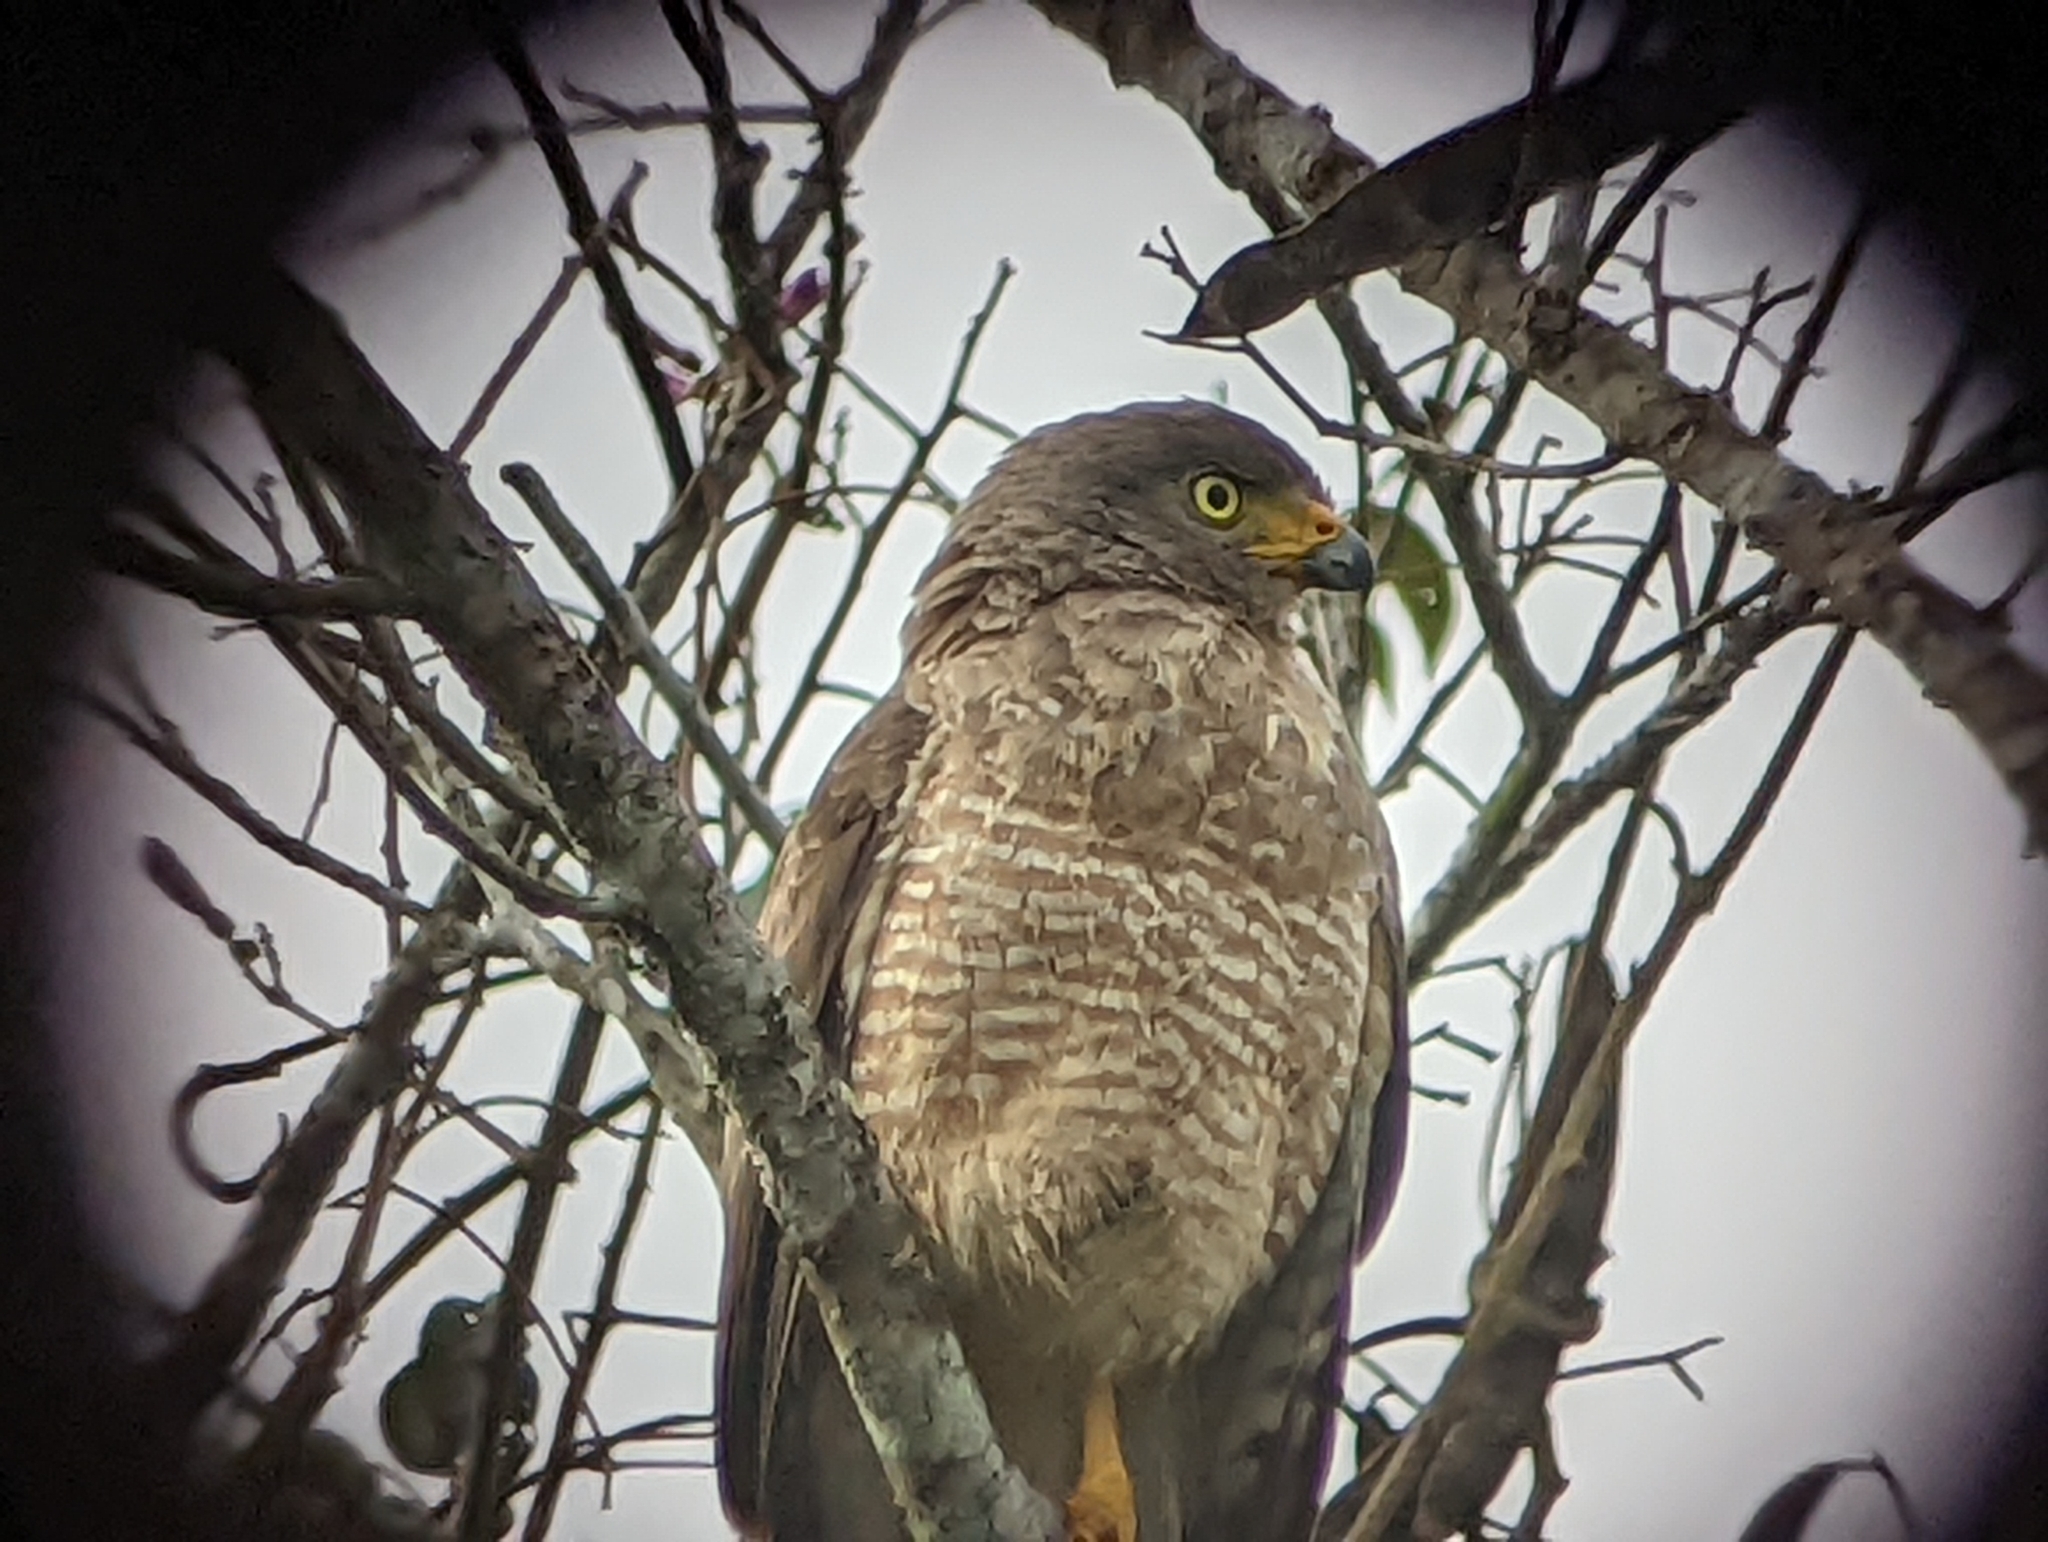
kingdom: Animalia
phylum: Chordata
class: Aves
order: Accipitriformes
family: Accipitridae
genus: Rupornis
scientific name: Rupornis magnirostris
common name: Roadside hawk
